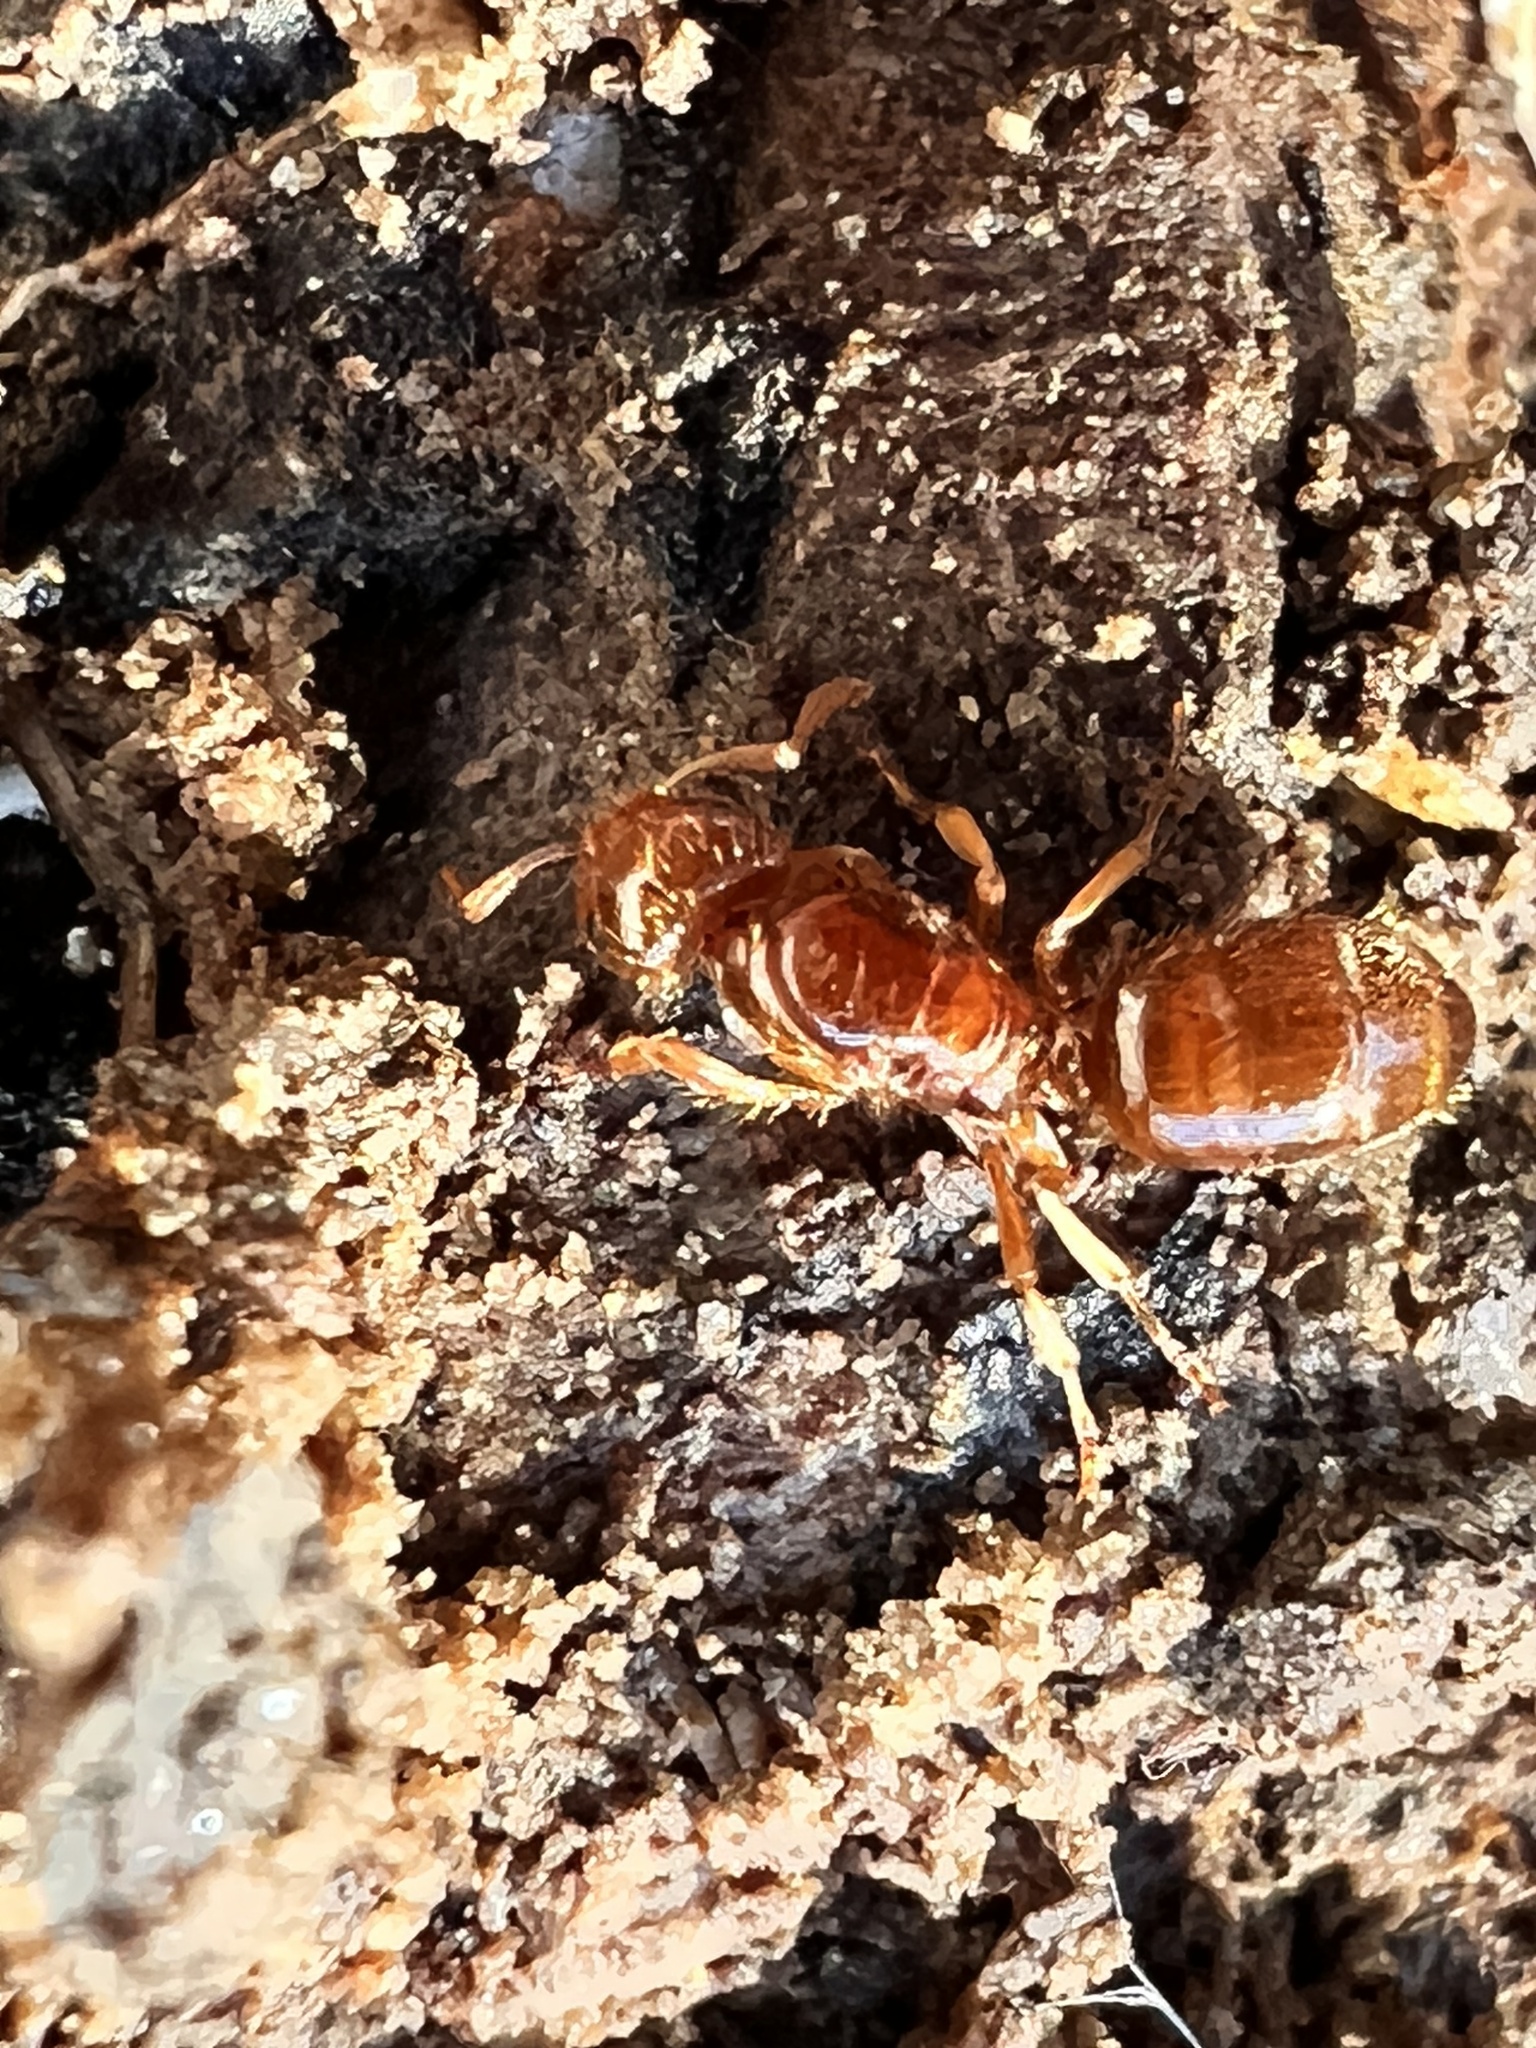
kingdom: Animalia
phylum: Arthropoda
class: Insecta
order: Hymenoptera
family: Formicidae
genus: Lasius
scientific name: Lasius claviger
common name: Common citronella ant
